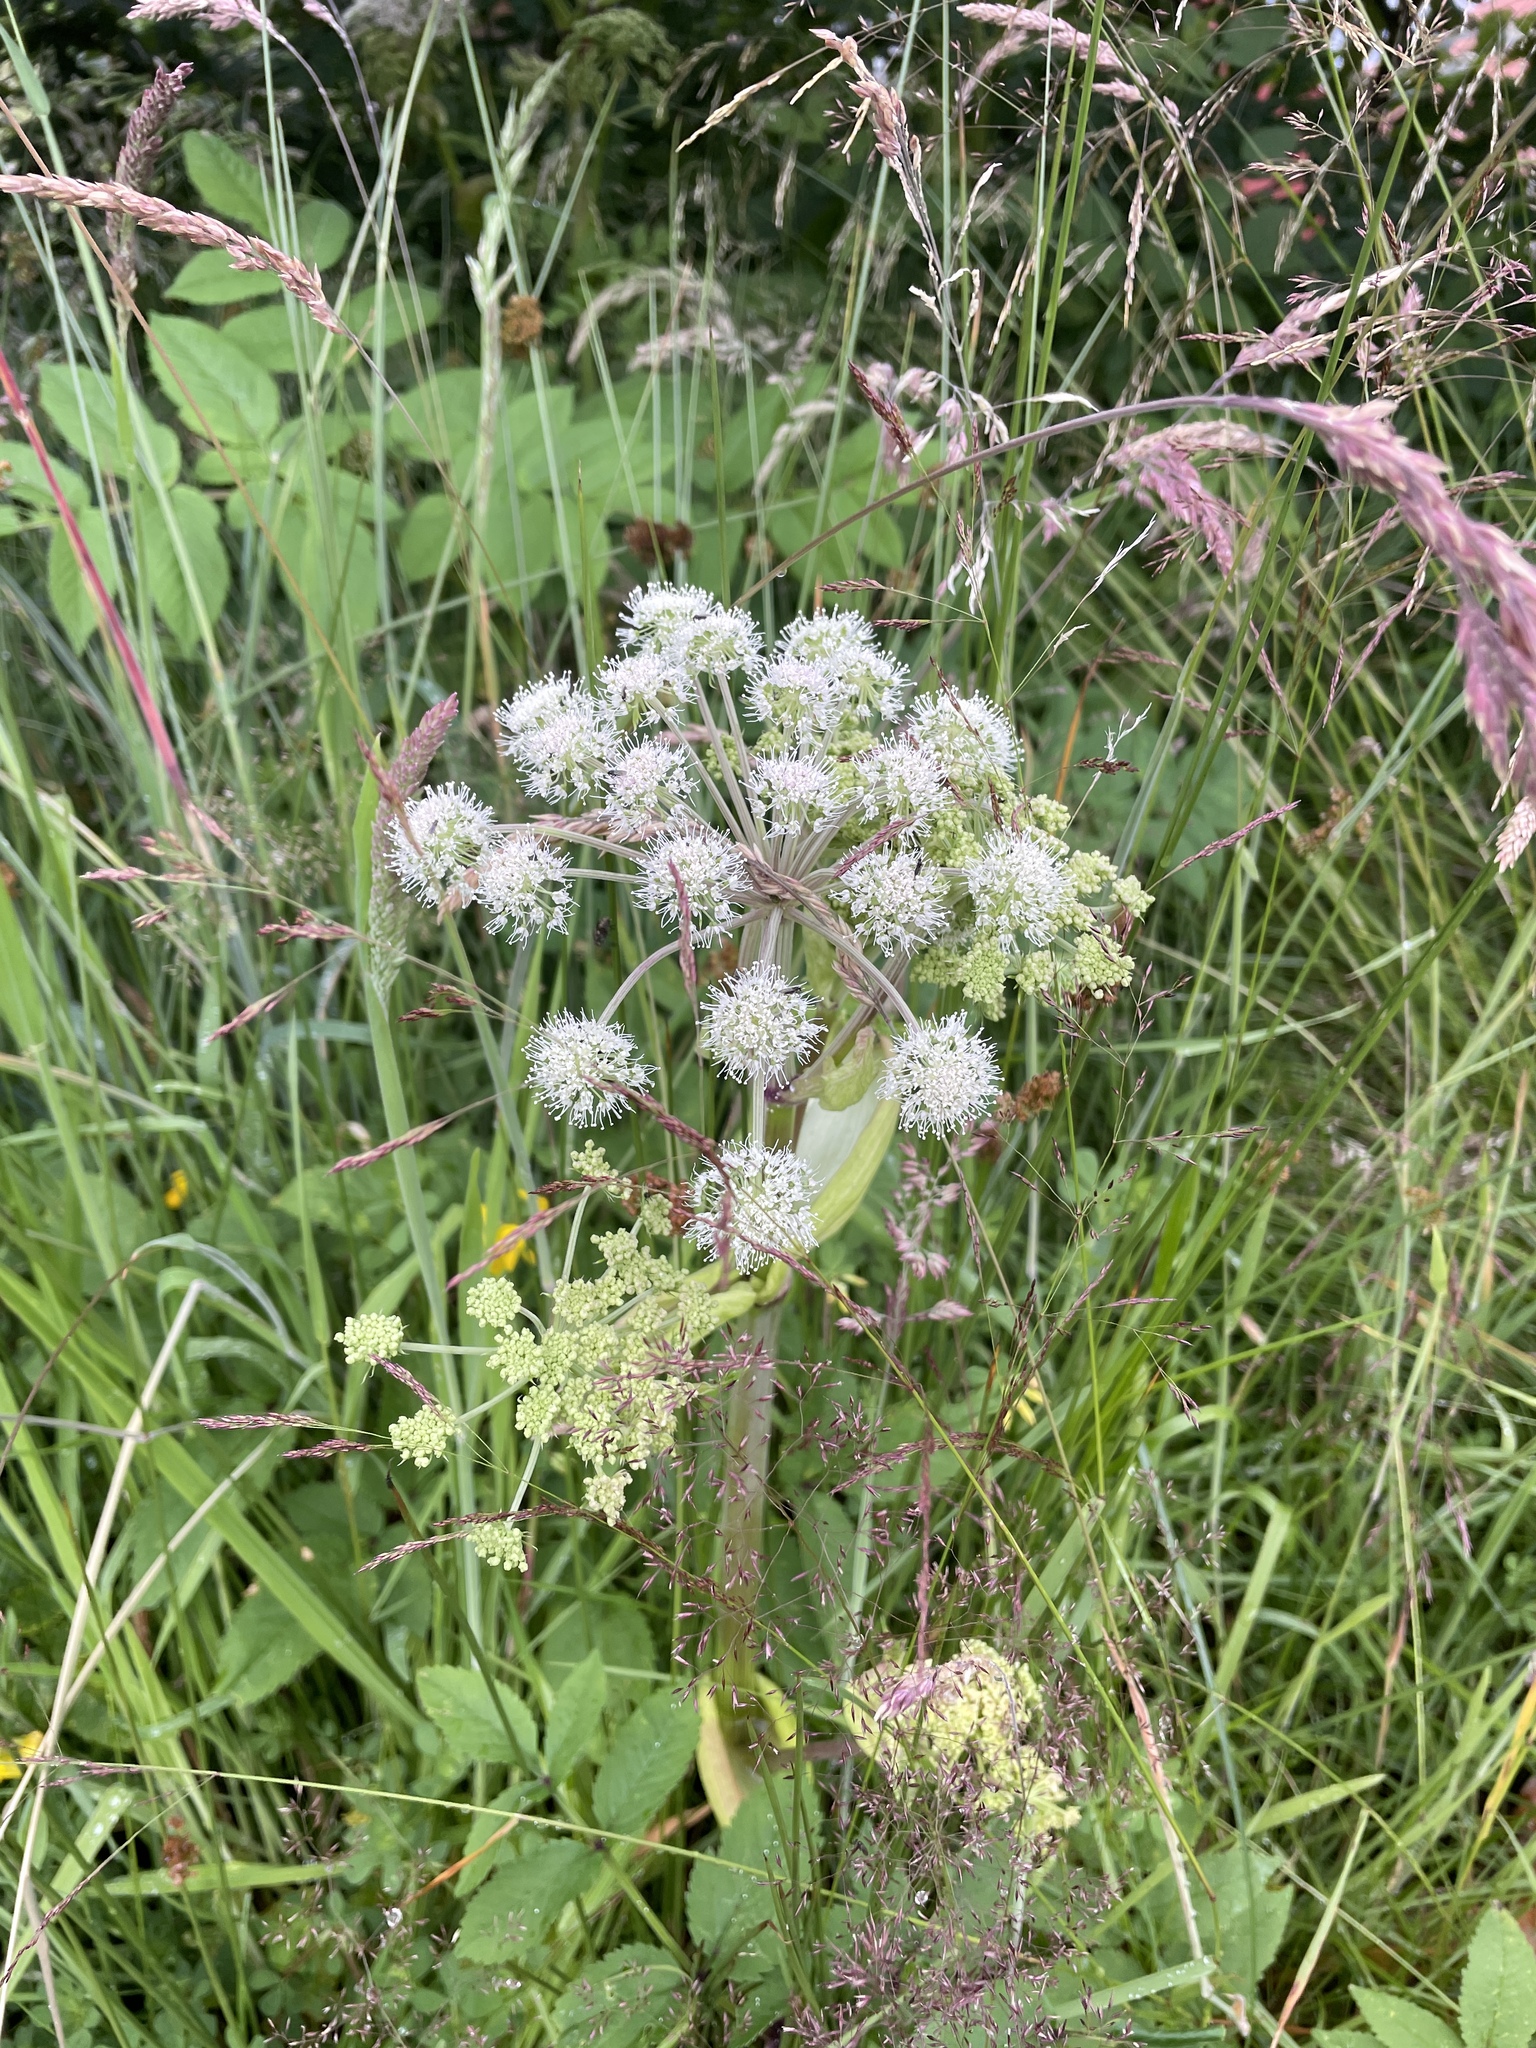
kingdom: Plantae
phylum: Tracheophyta
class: Magnoliopsida
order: Apiales
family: Apiaceae
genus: Angelica
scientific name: Angelica sylvestris
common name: Wild angelica
